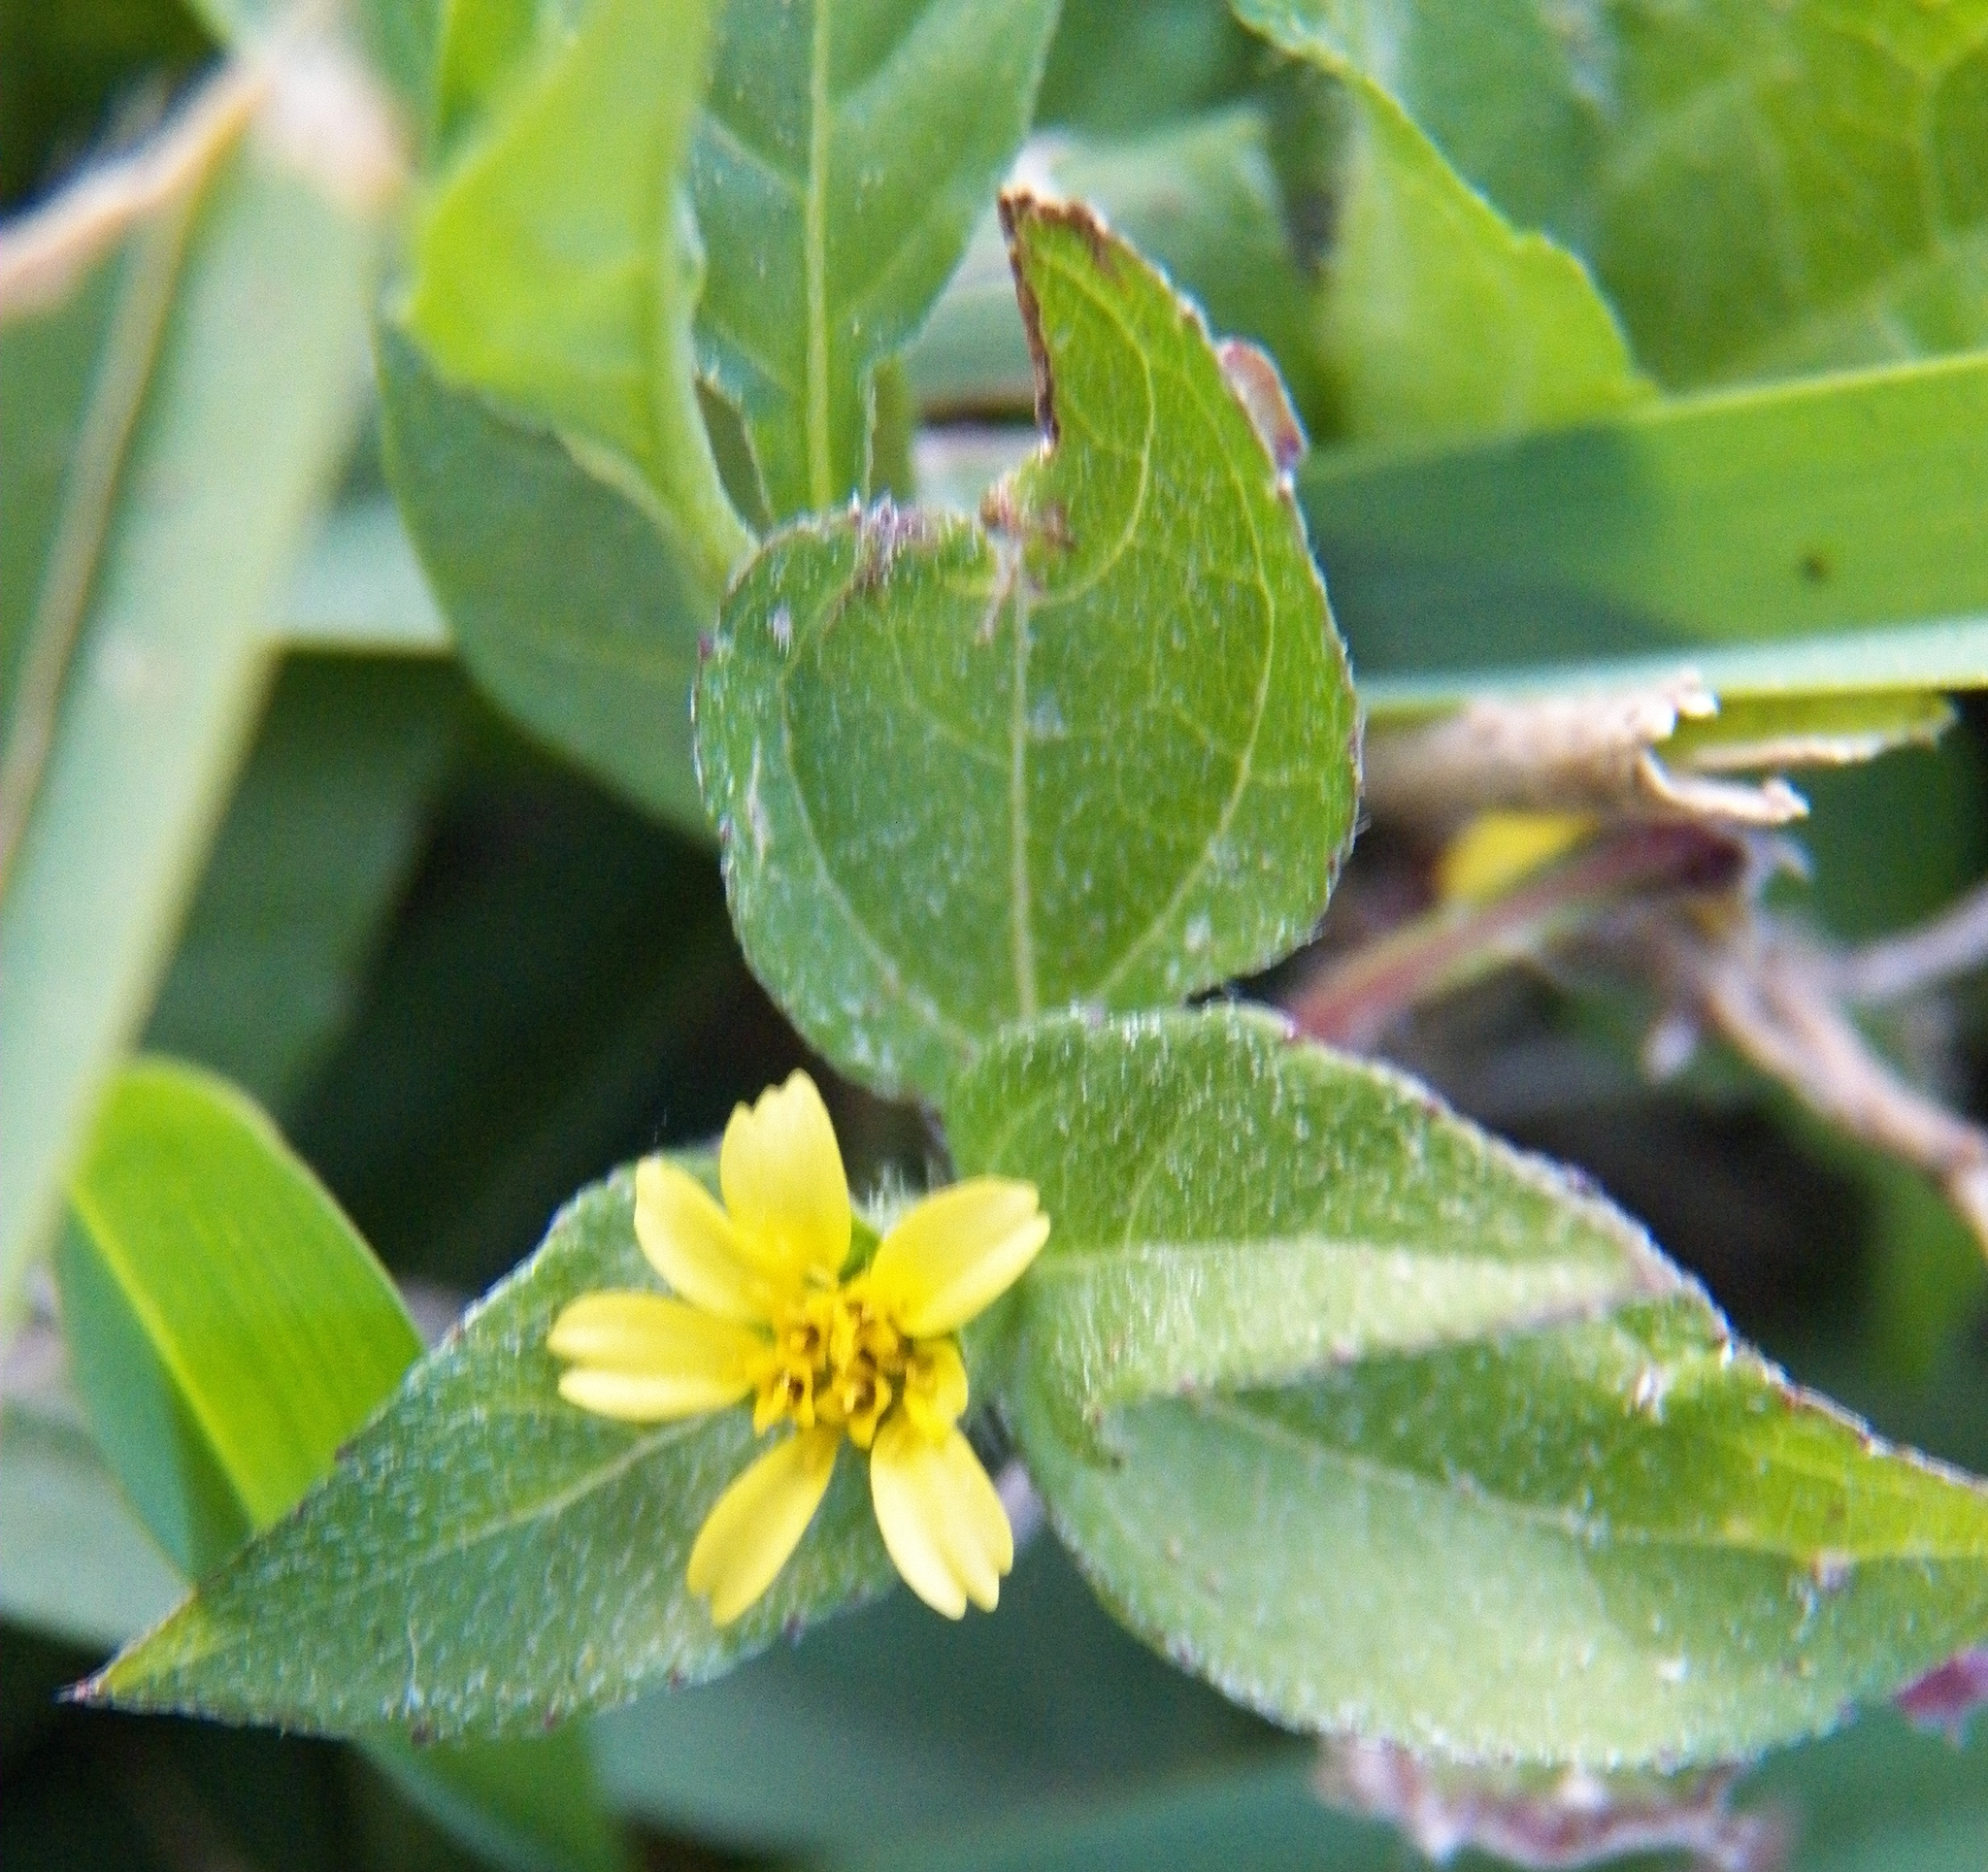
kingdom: Plantae
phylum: Tracheophyta
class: Magnoliopsida
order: Asterales
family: Asteraceae
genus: Calyptocarpus
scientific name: Calyptocarpus vialis
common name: Straggler daisy
